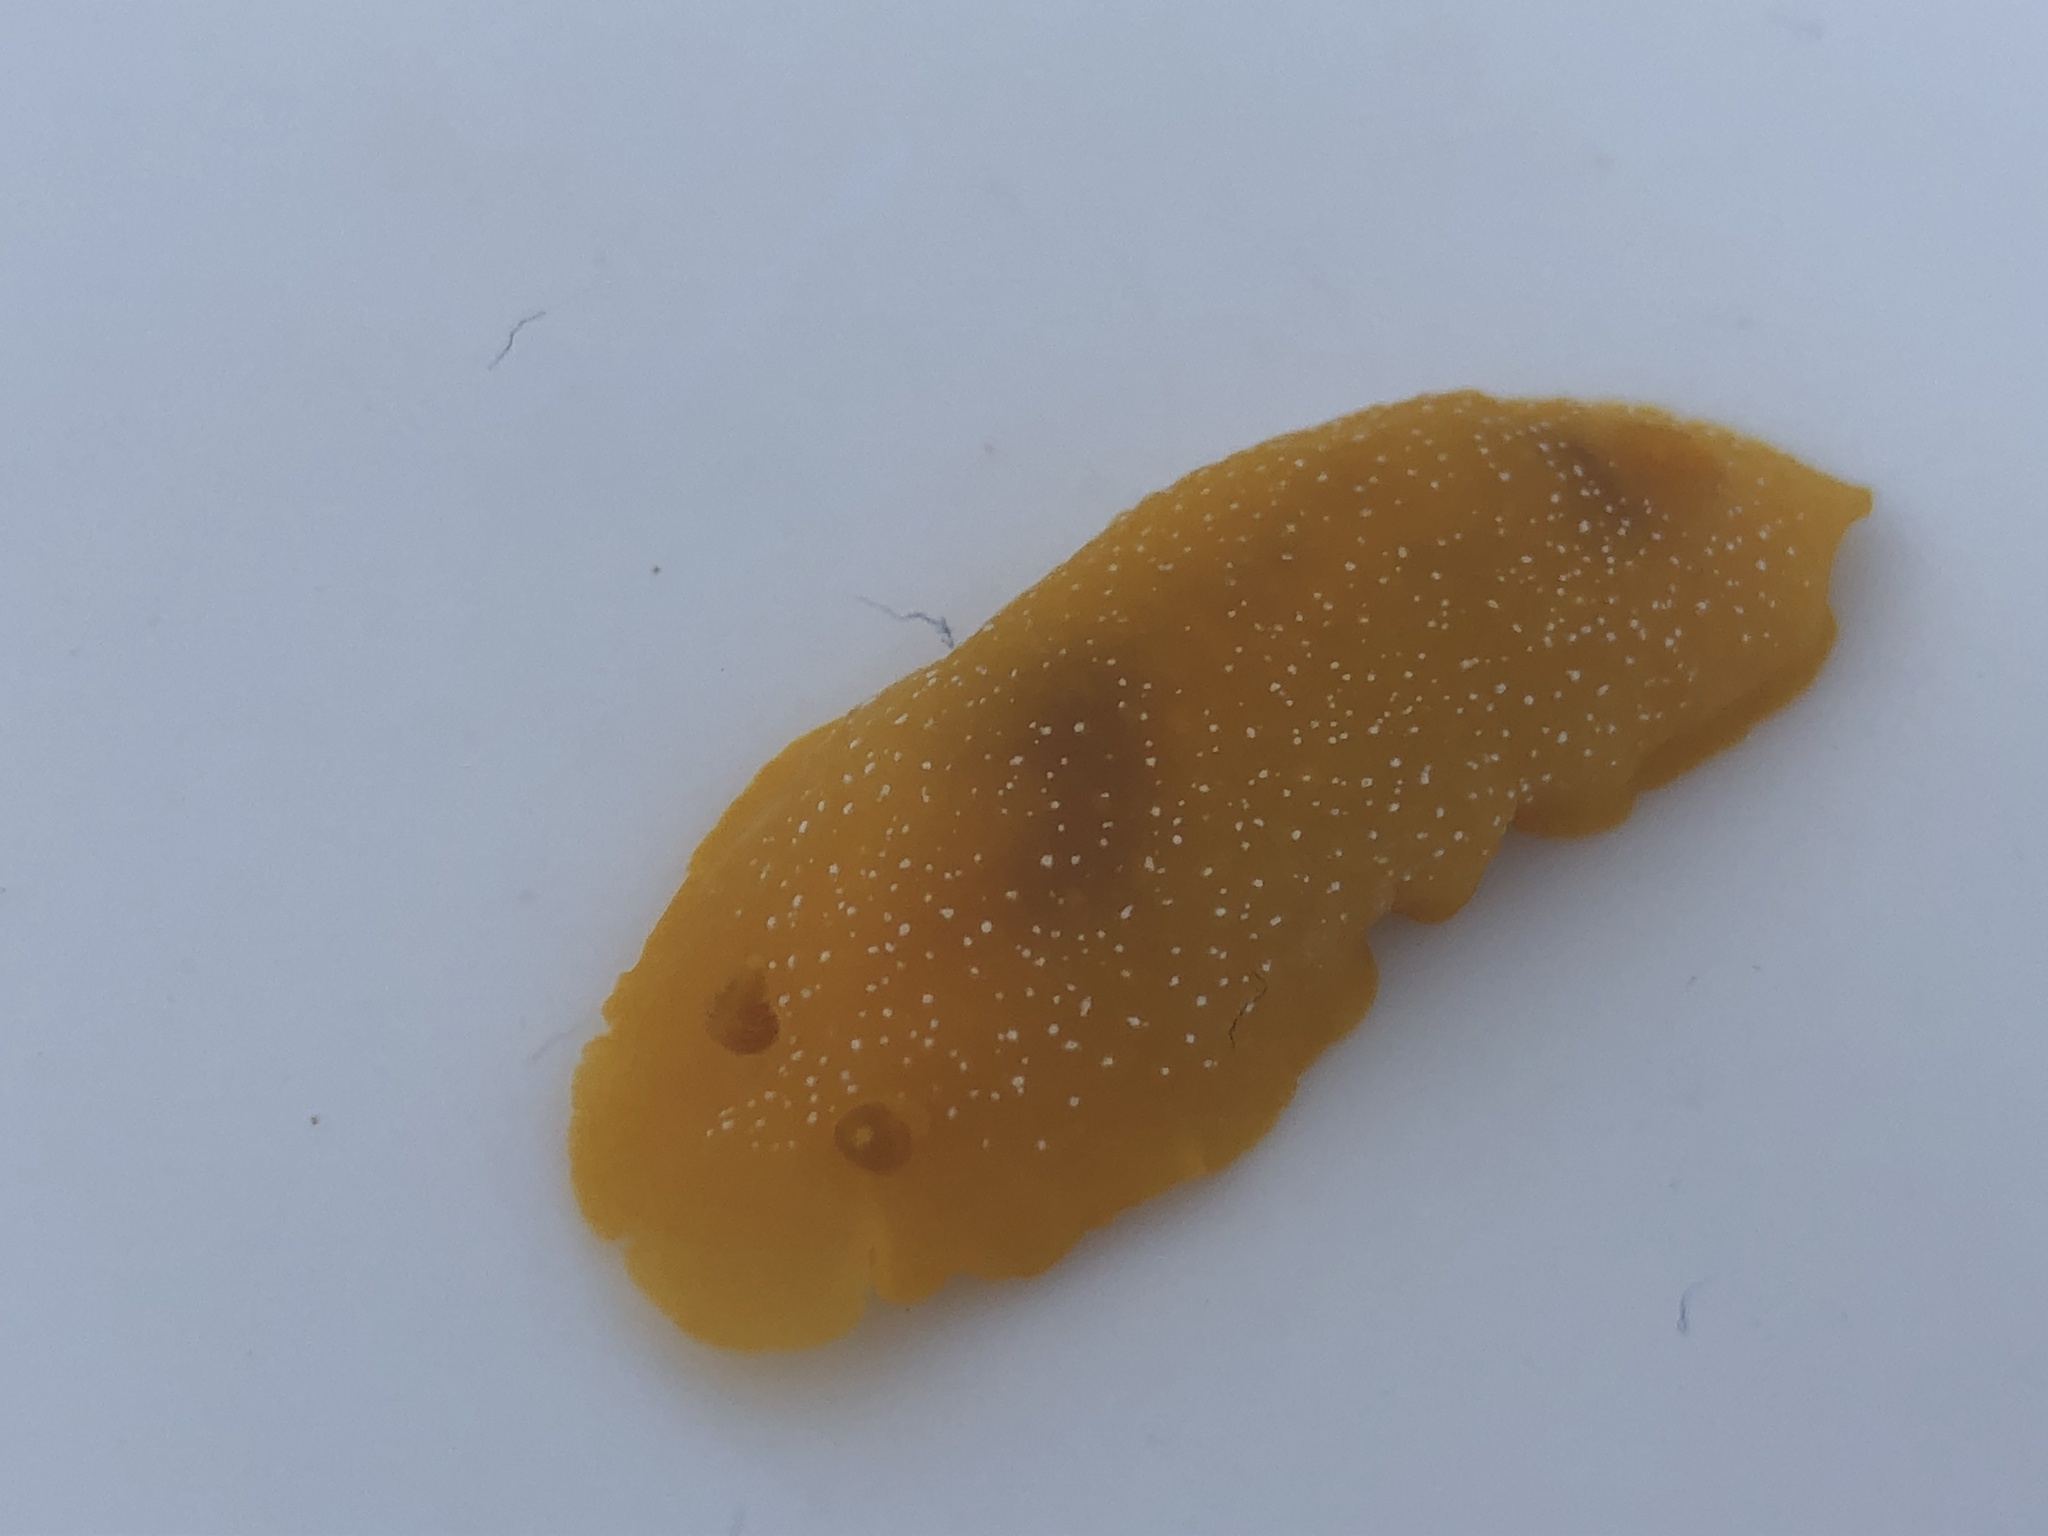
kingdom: Animalia
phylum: Mollusca
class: Gastropoda
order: Nudibranchia
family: Dendrodorididae
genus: Doriopsilla
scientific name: Doriopsilla fulva
